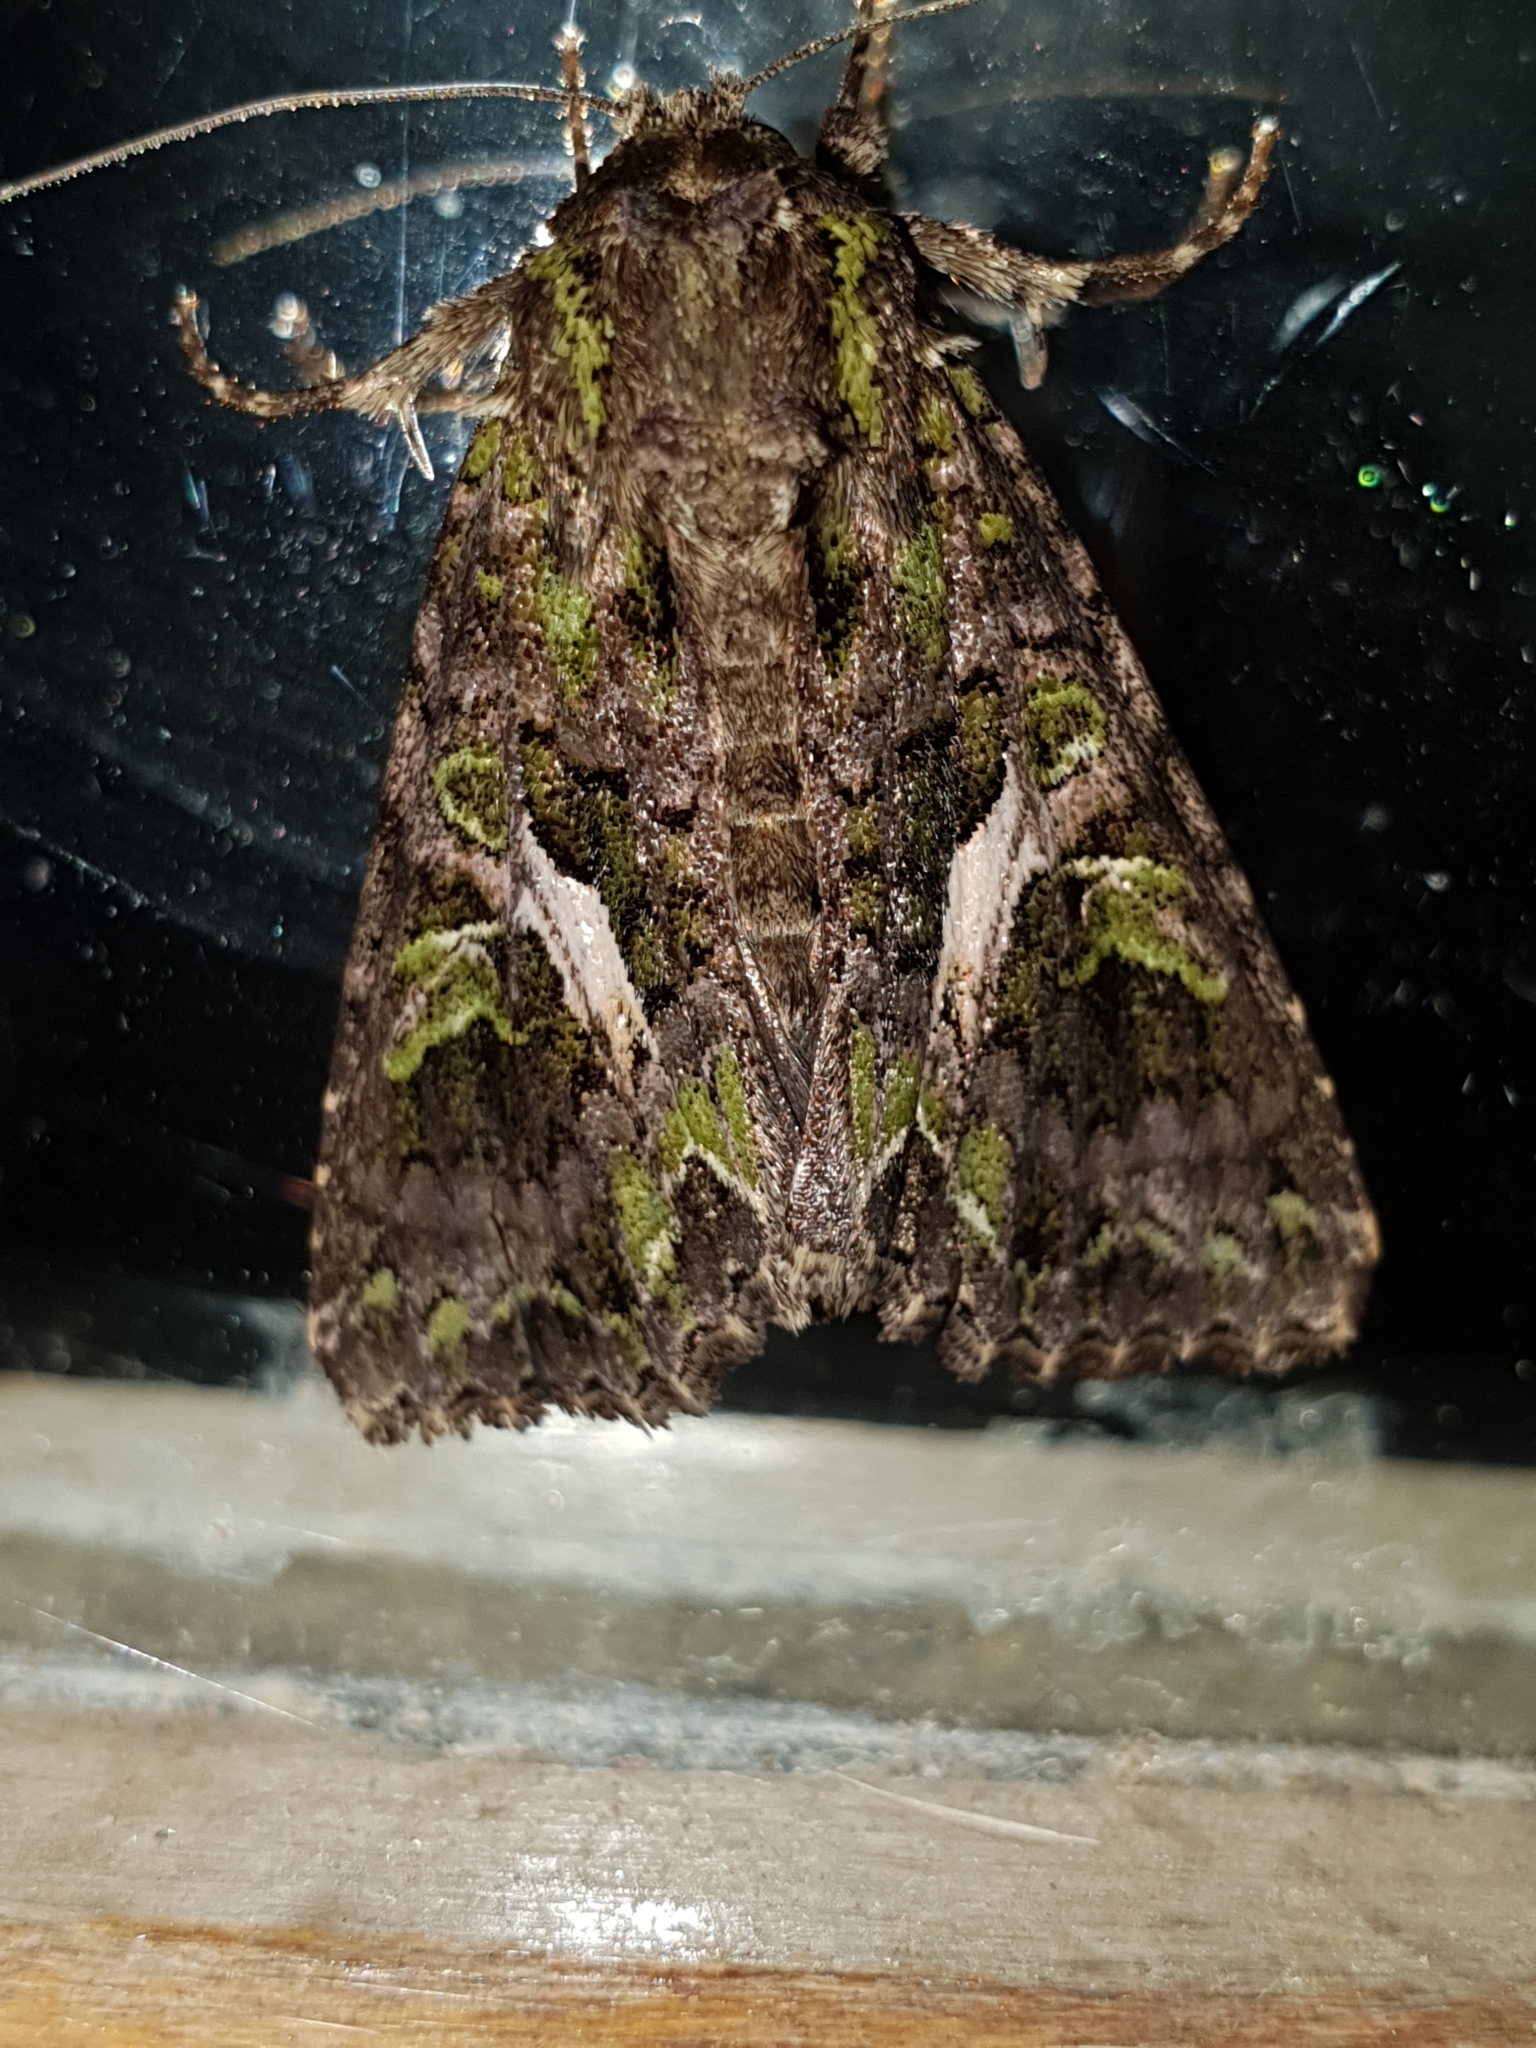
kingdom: Animalia
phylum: Arthropoda
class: Insecta
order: Lepidoptera
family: Noctuidae
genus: Trachea
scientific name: Trachea atriplicis
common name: Orache moth
